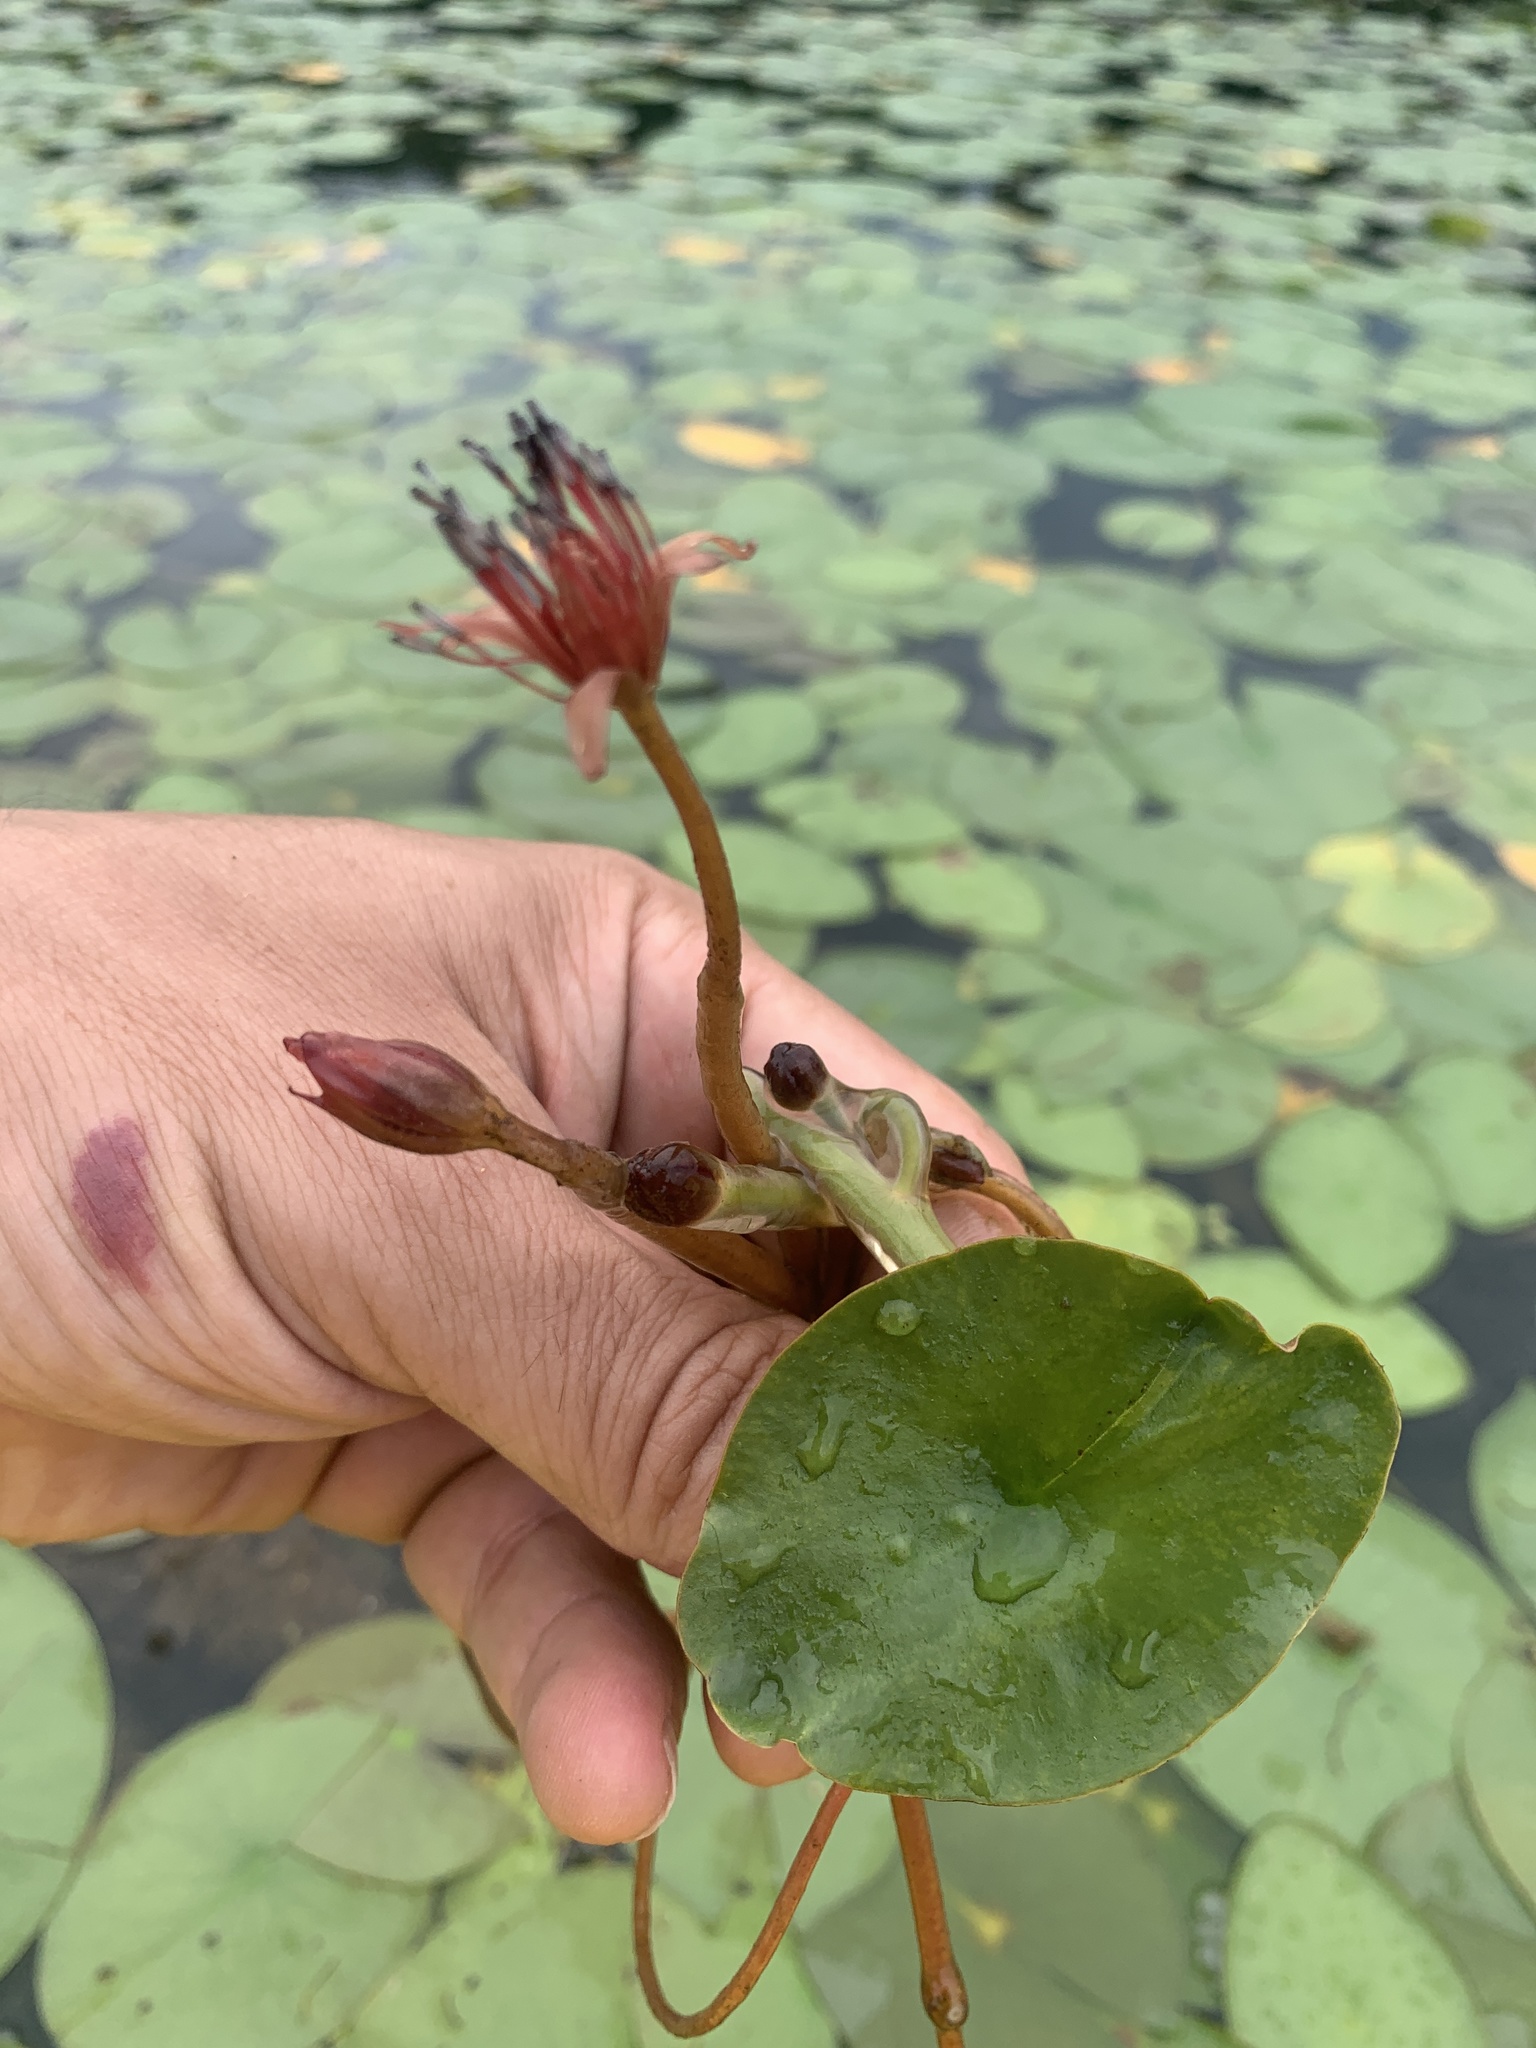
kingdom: Plantae
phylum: Tracheophyta
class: Magnoliopsida
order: Nymphaeales
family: Cabombaceae
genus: Brasenia
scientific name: Brasenia schreberi
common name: Water-shield
